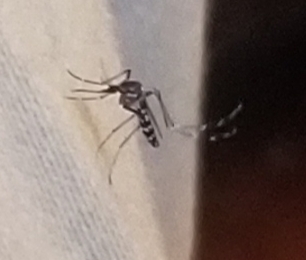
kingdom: Animalia
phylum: Arthropoda
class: Insecta
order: Diptera
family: Culicidae
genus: Aedes
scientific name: Aedes albopictus
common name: Tiger mosquito
